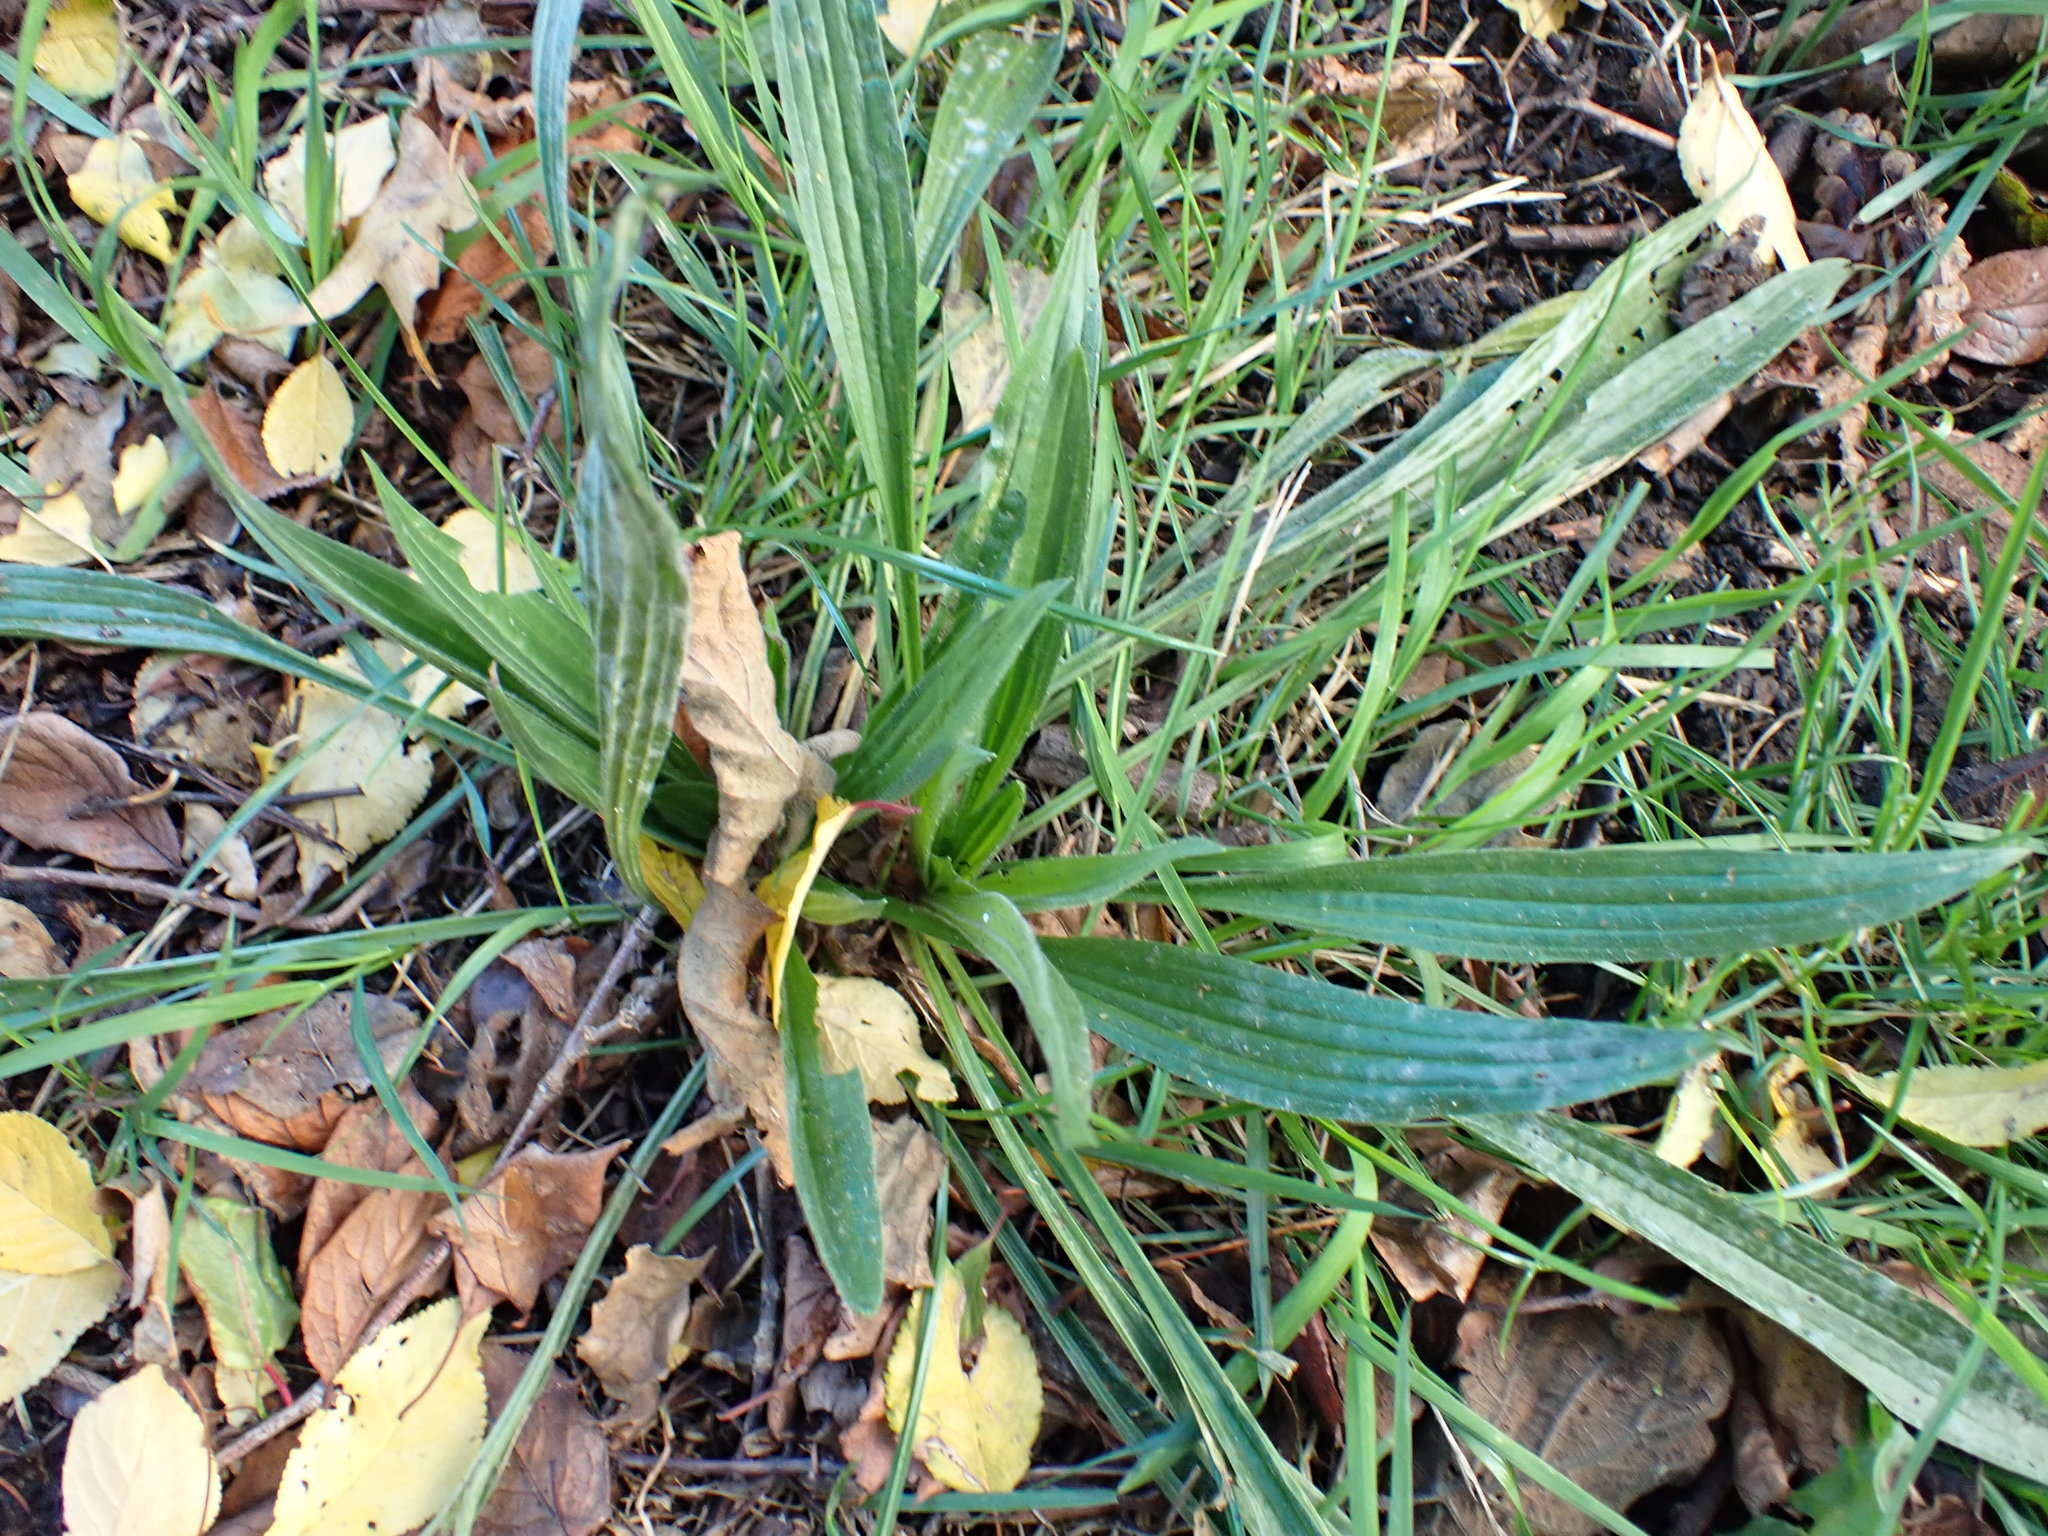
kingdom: Plantae
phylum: Tracheophyta
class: Magnoliopsida
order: Lamiales
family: Plantaginaceae
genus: Plantago
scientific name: Plantago lanceolata
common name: Ribwort plantain
